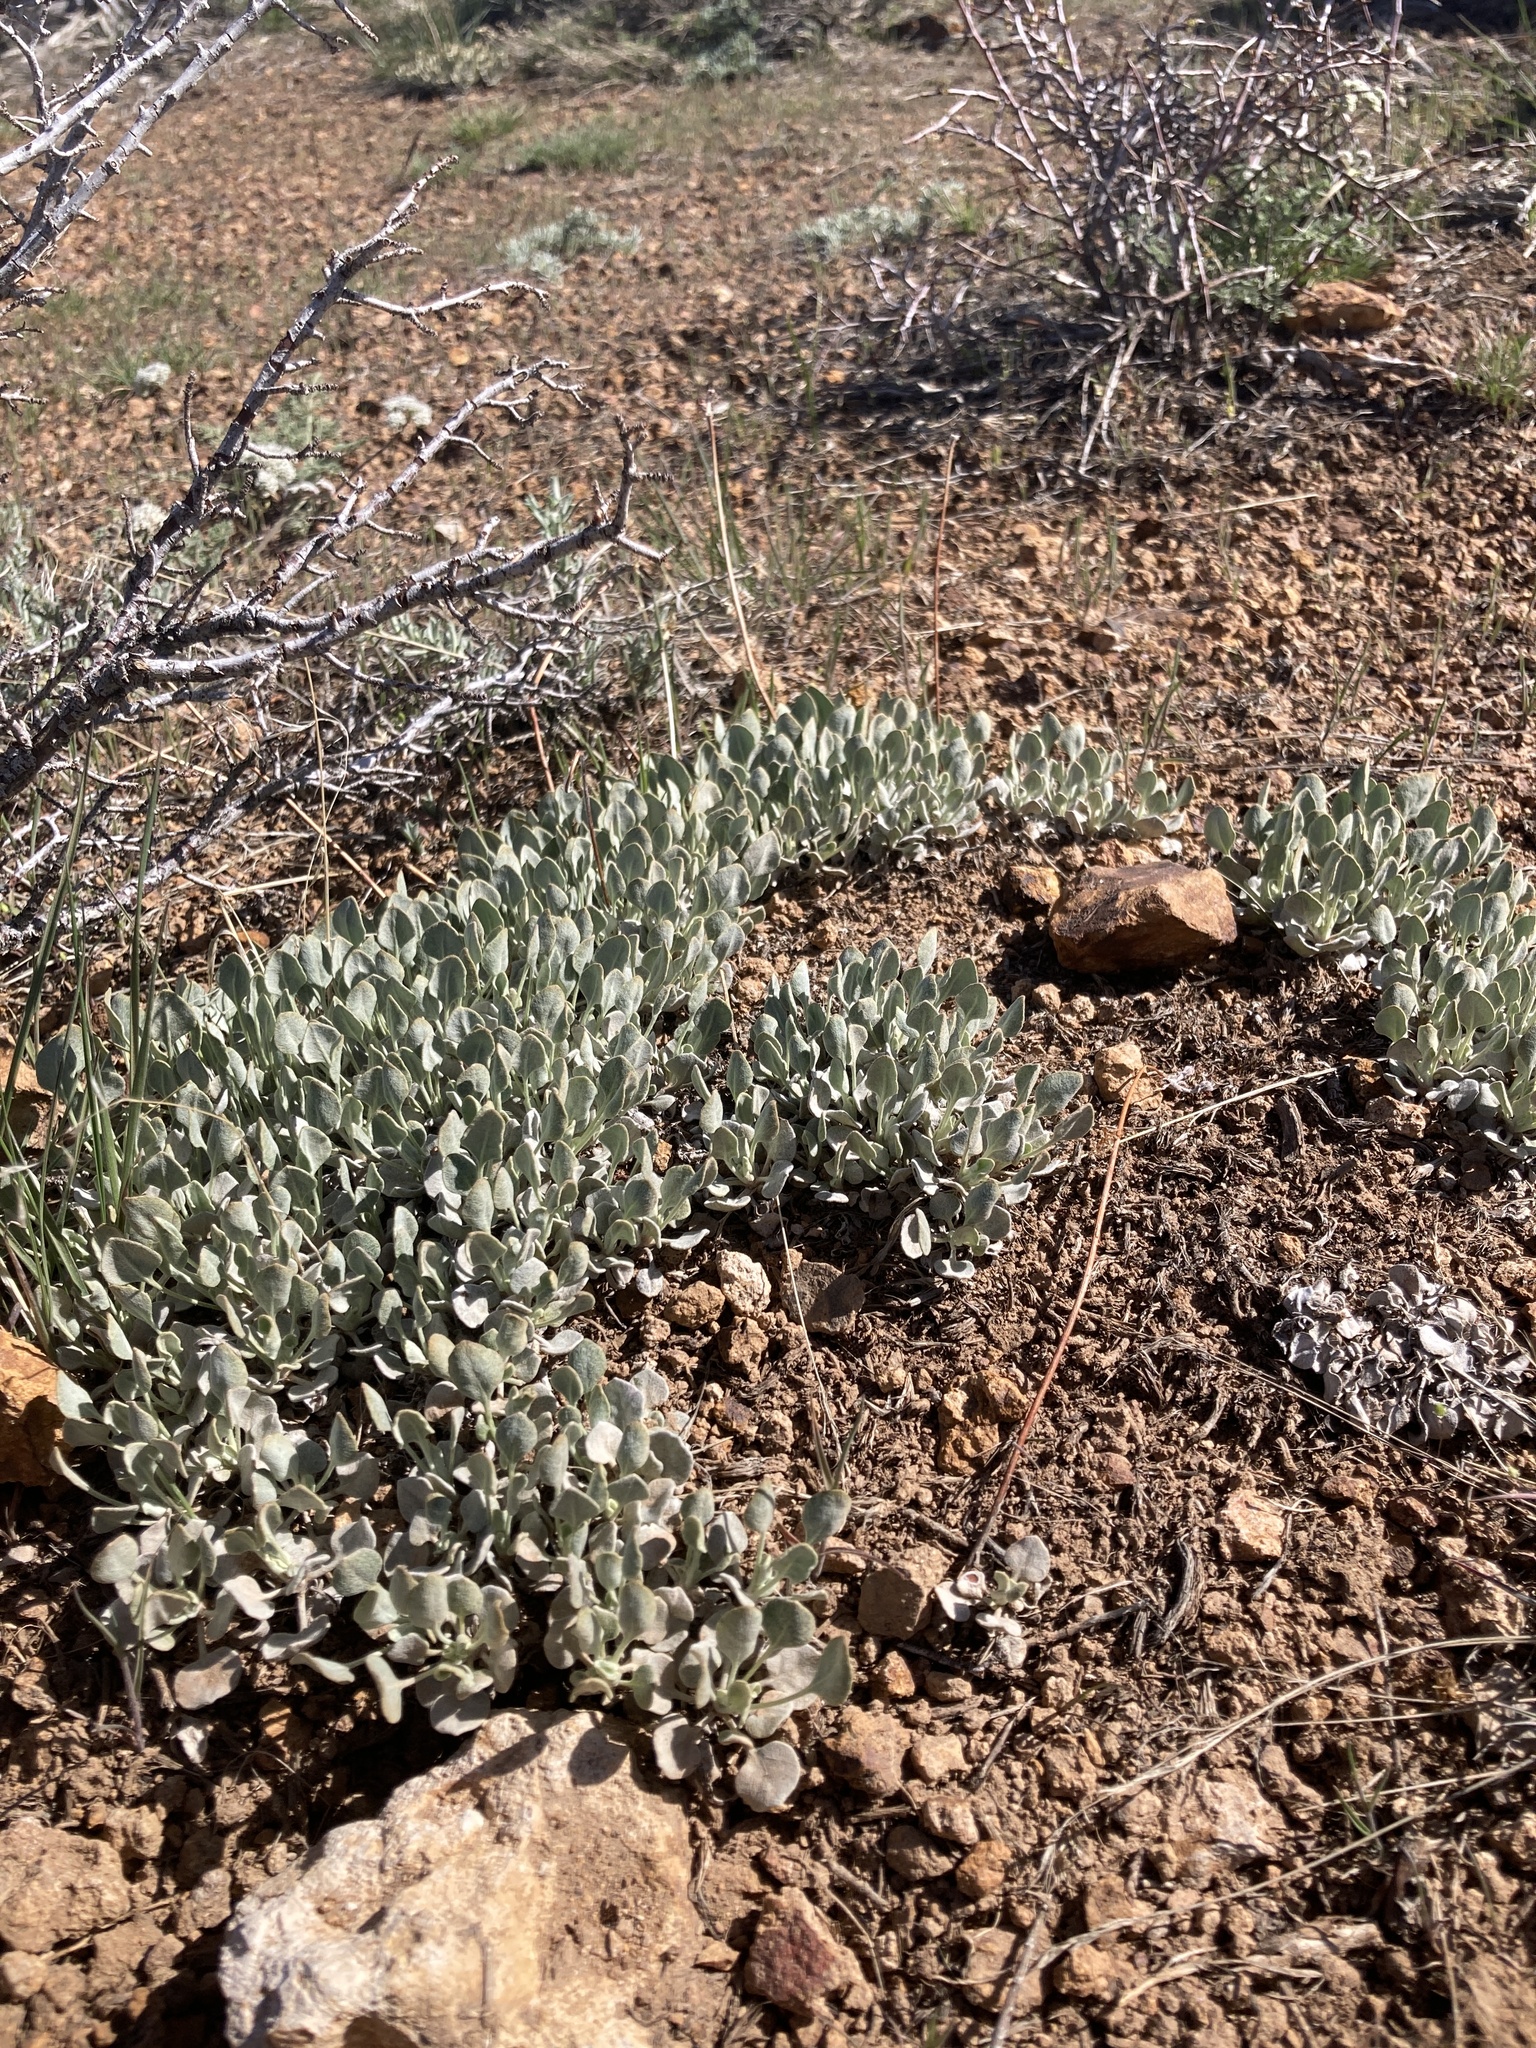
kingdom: Plantae
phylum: Tracheophyta
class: Magnoliopsida
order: Caryophyllales
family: Polygonaceae
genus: Eriogonum
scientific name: Eriogonum ovalifolium
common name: Cushion buckwheat
